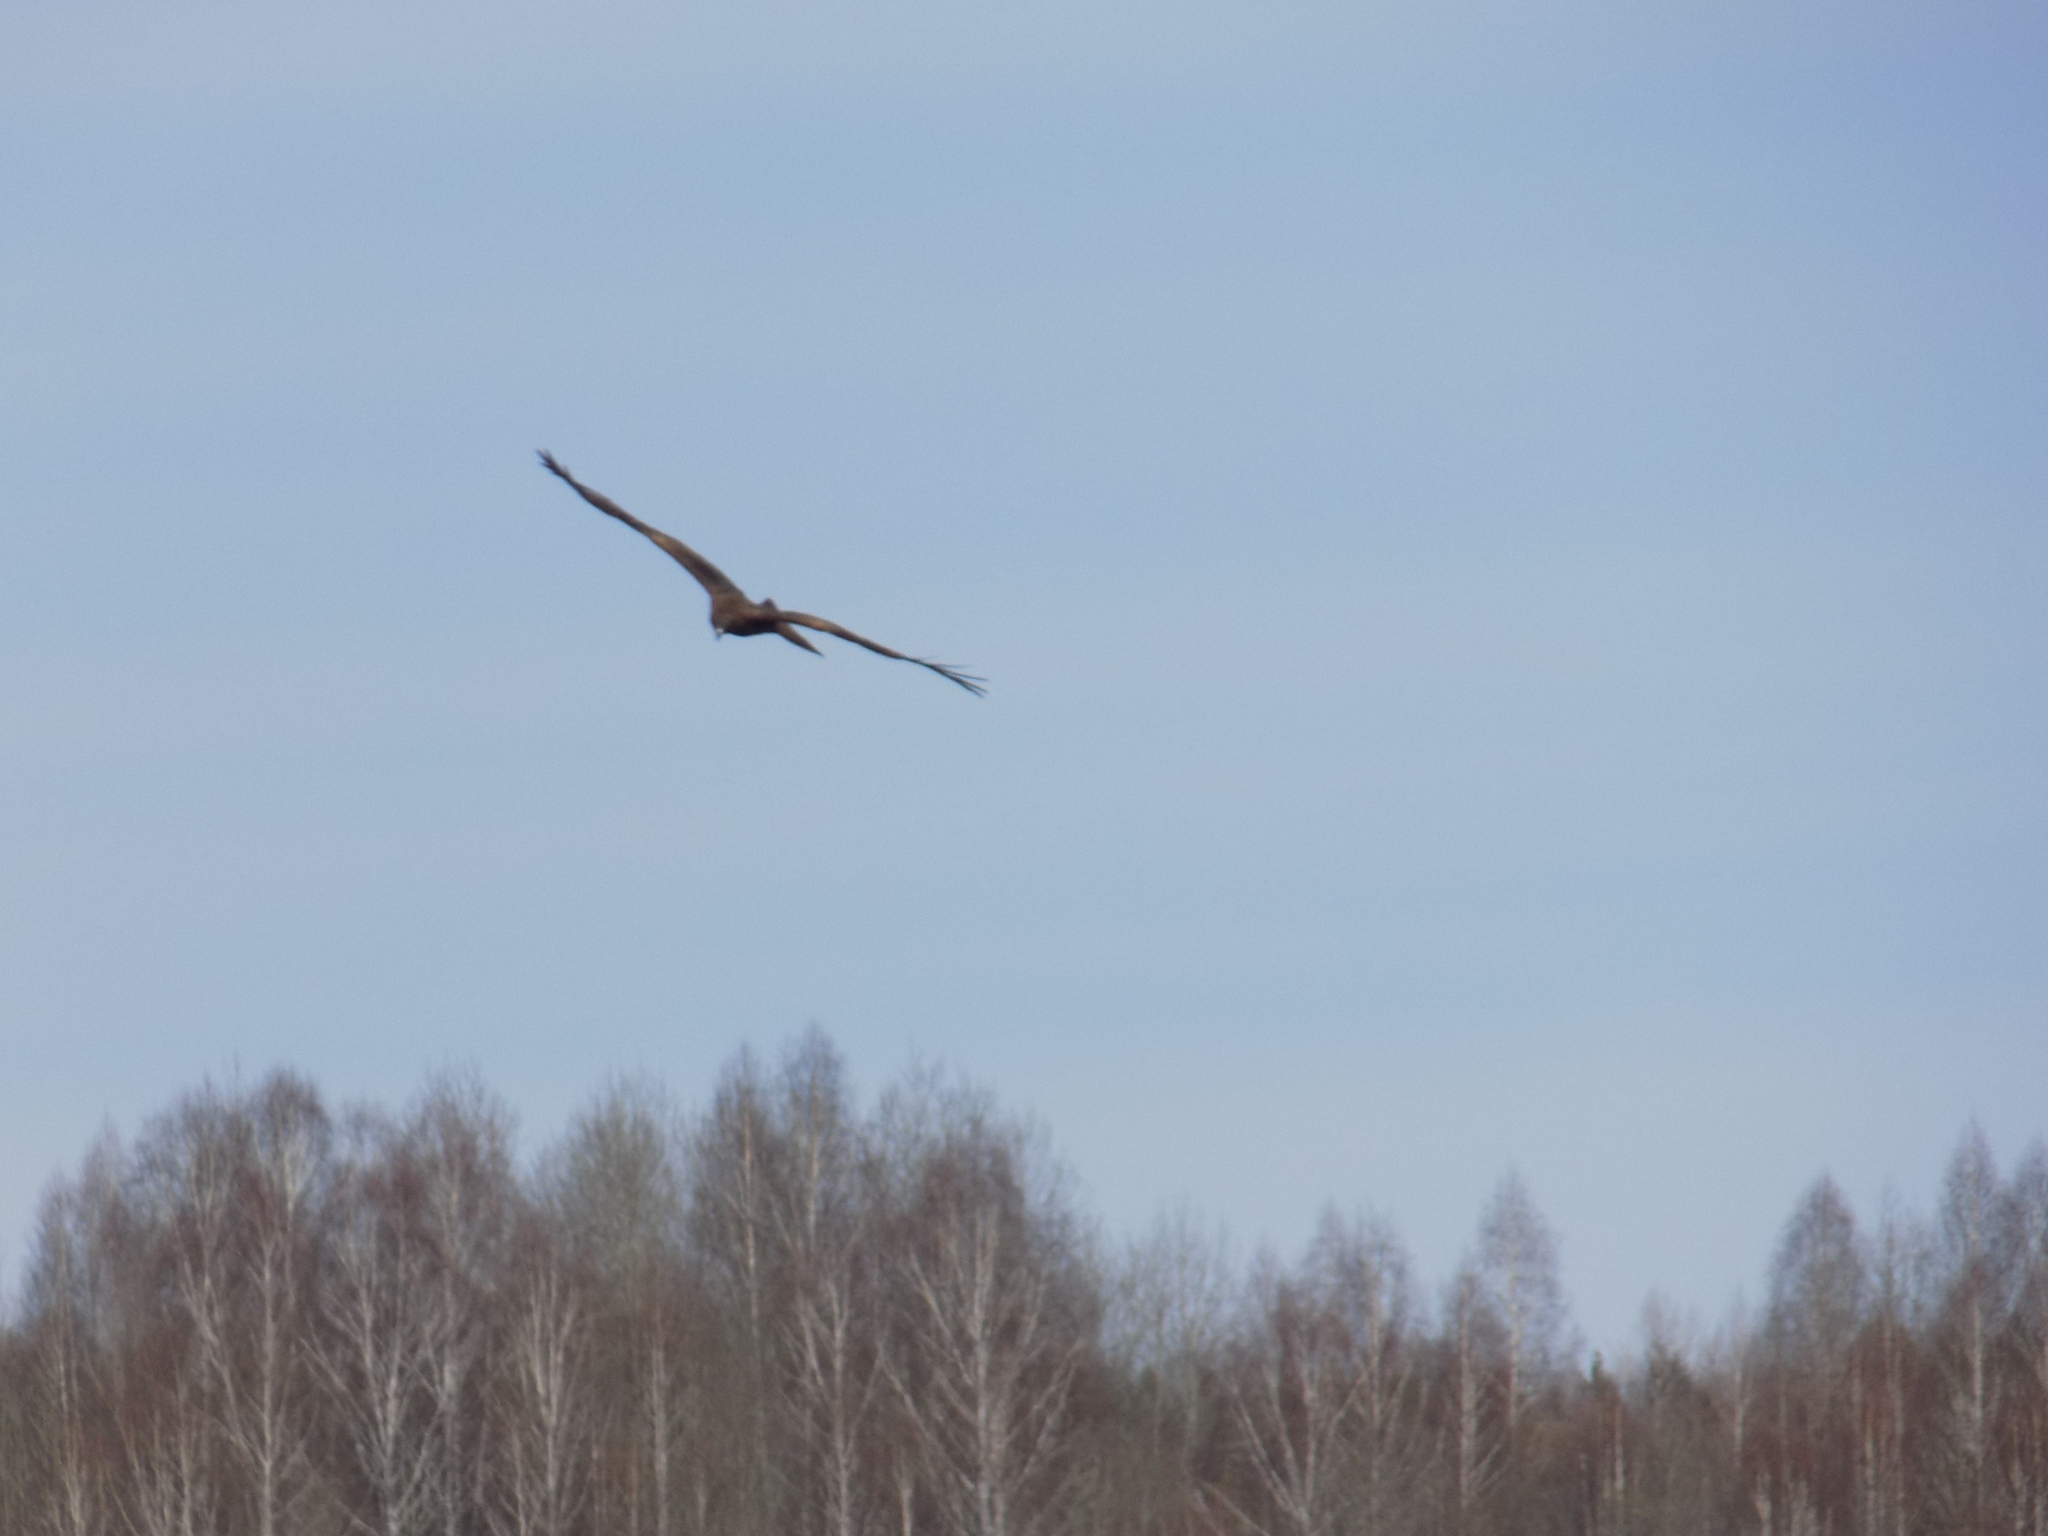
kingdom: Animalia
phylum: Chordata
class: Aves
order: Accipitriformes
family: Accipitridae
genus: Milvus
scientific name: Milvus migrans
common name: Black kite
